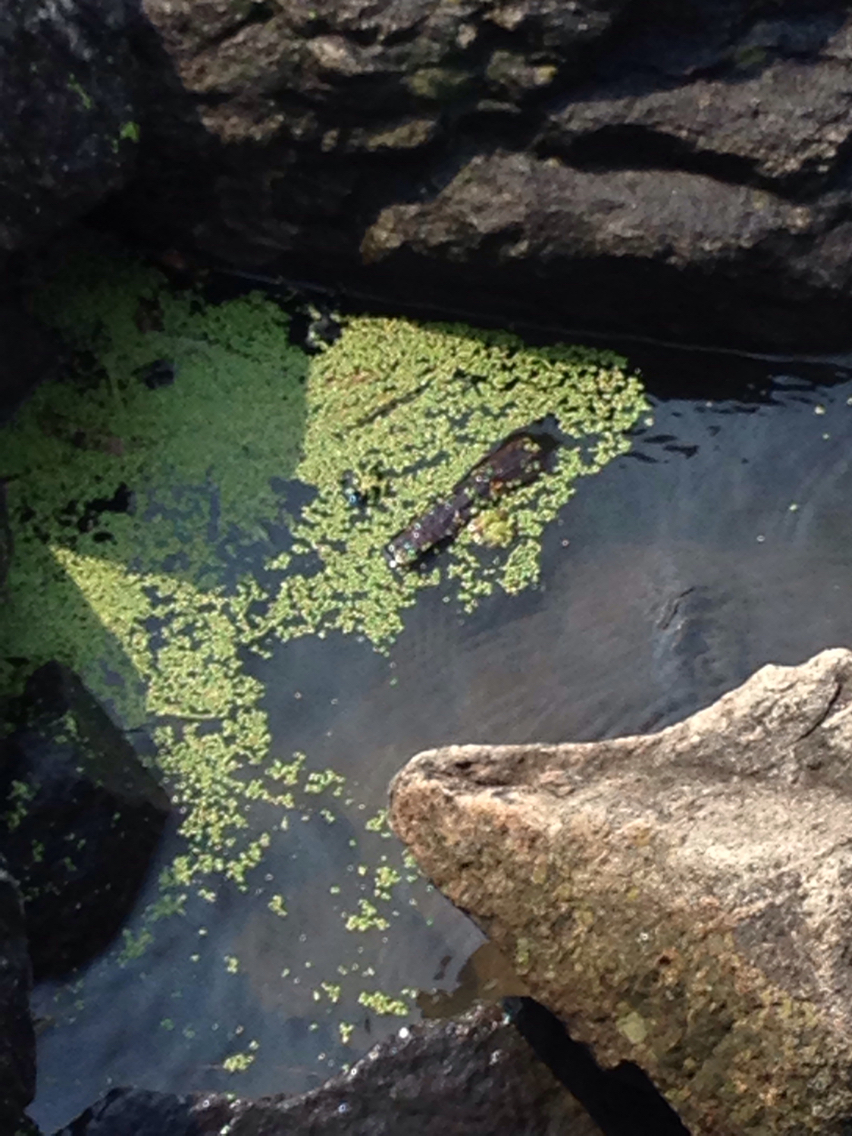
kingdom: Plantae
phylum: Tracheophyta
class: Liliopsida
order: Alismatales
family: Araceae
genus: Lemna
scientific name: Lemna
